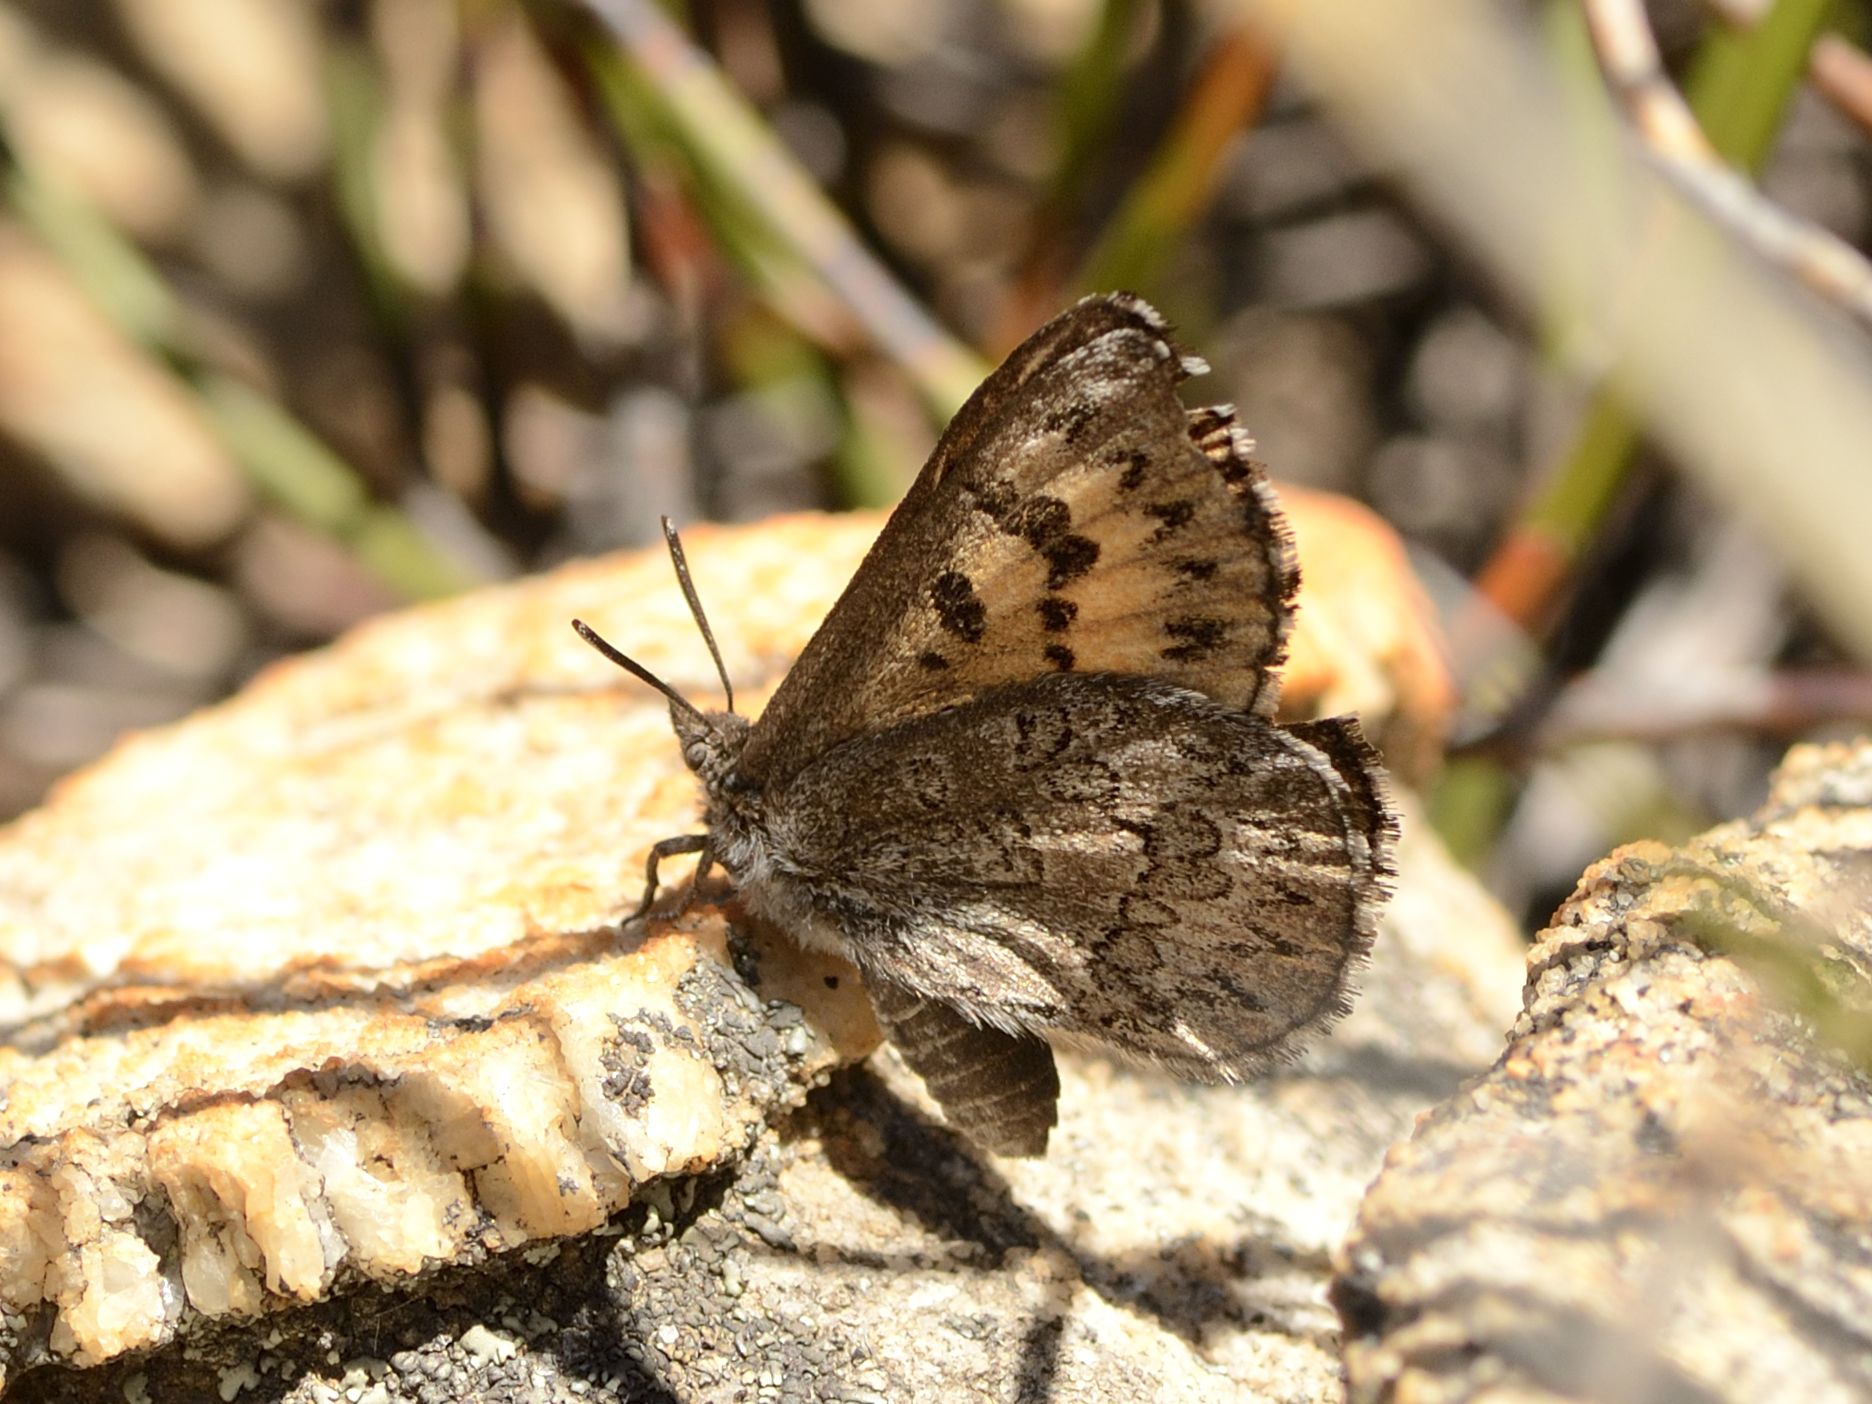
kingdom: Animalia
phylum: Arthropoda
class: Insecta
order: Lepidoptera
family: Lycaenidae
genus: Thestor
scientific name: Thestor vansoni
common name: Van son's skolly
